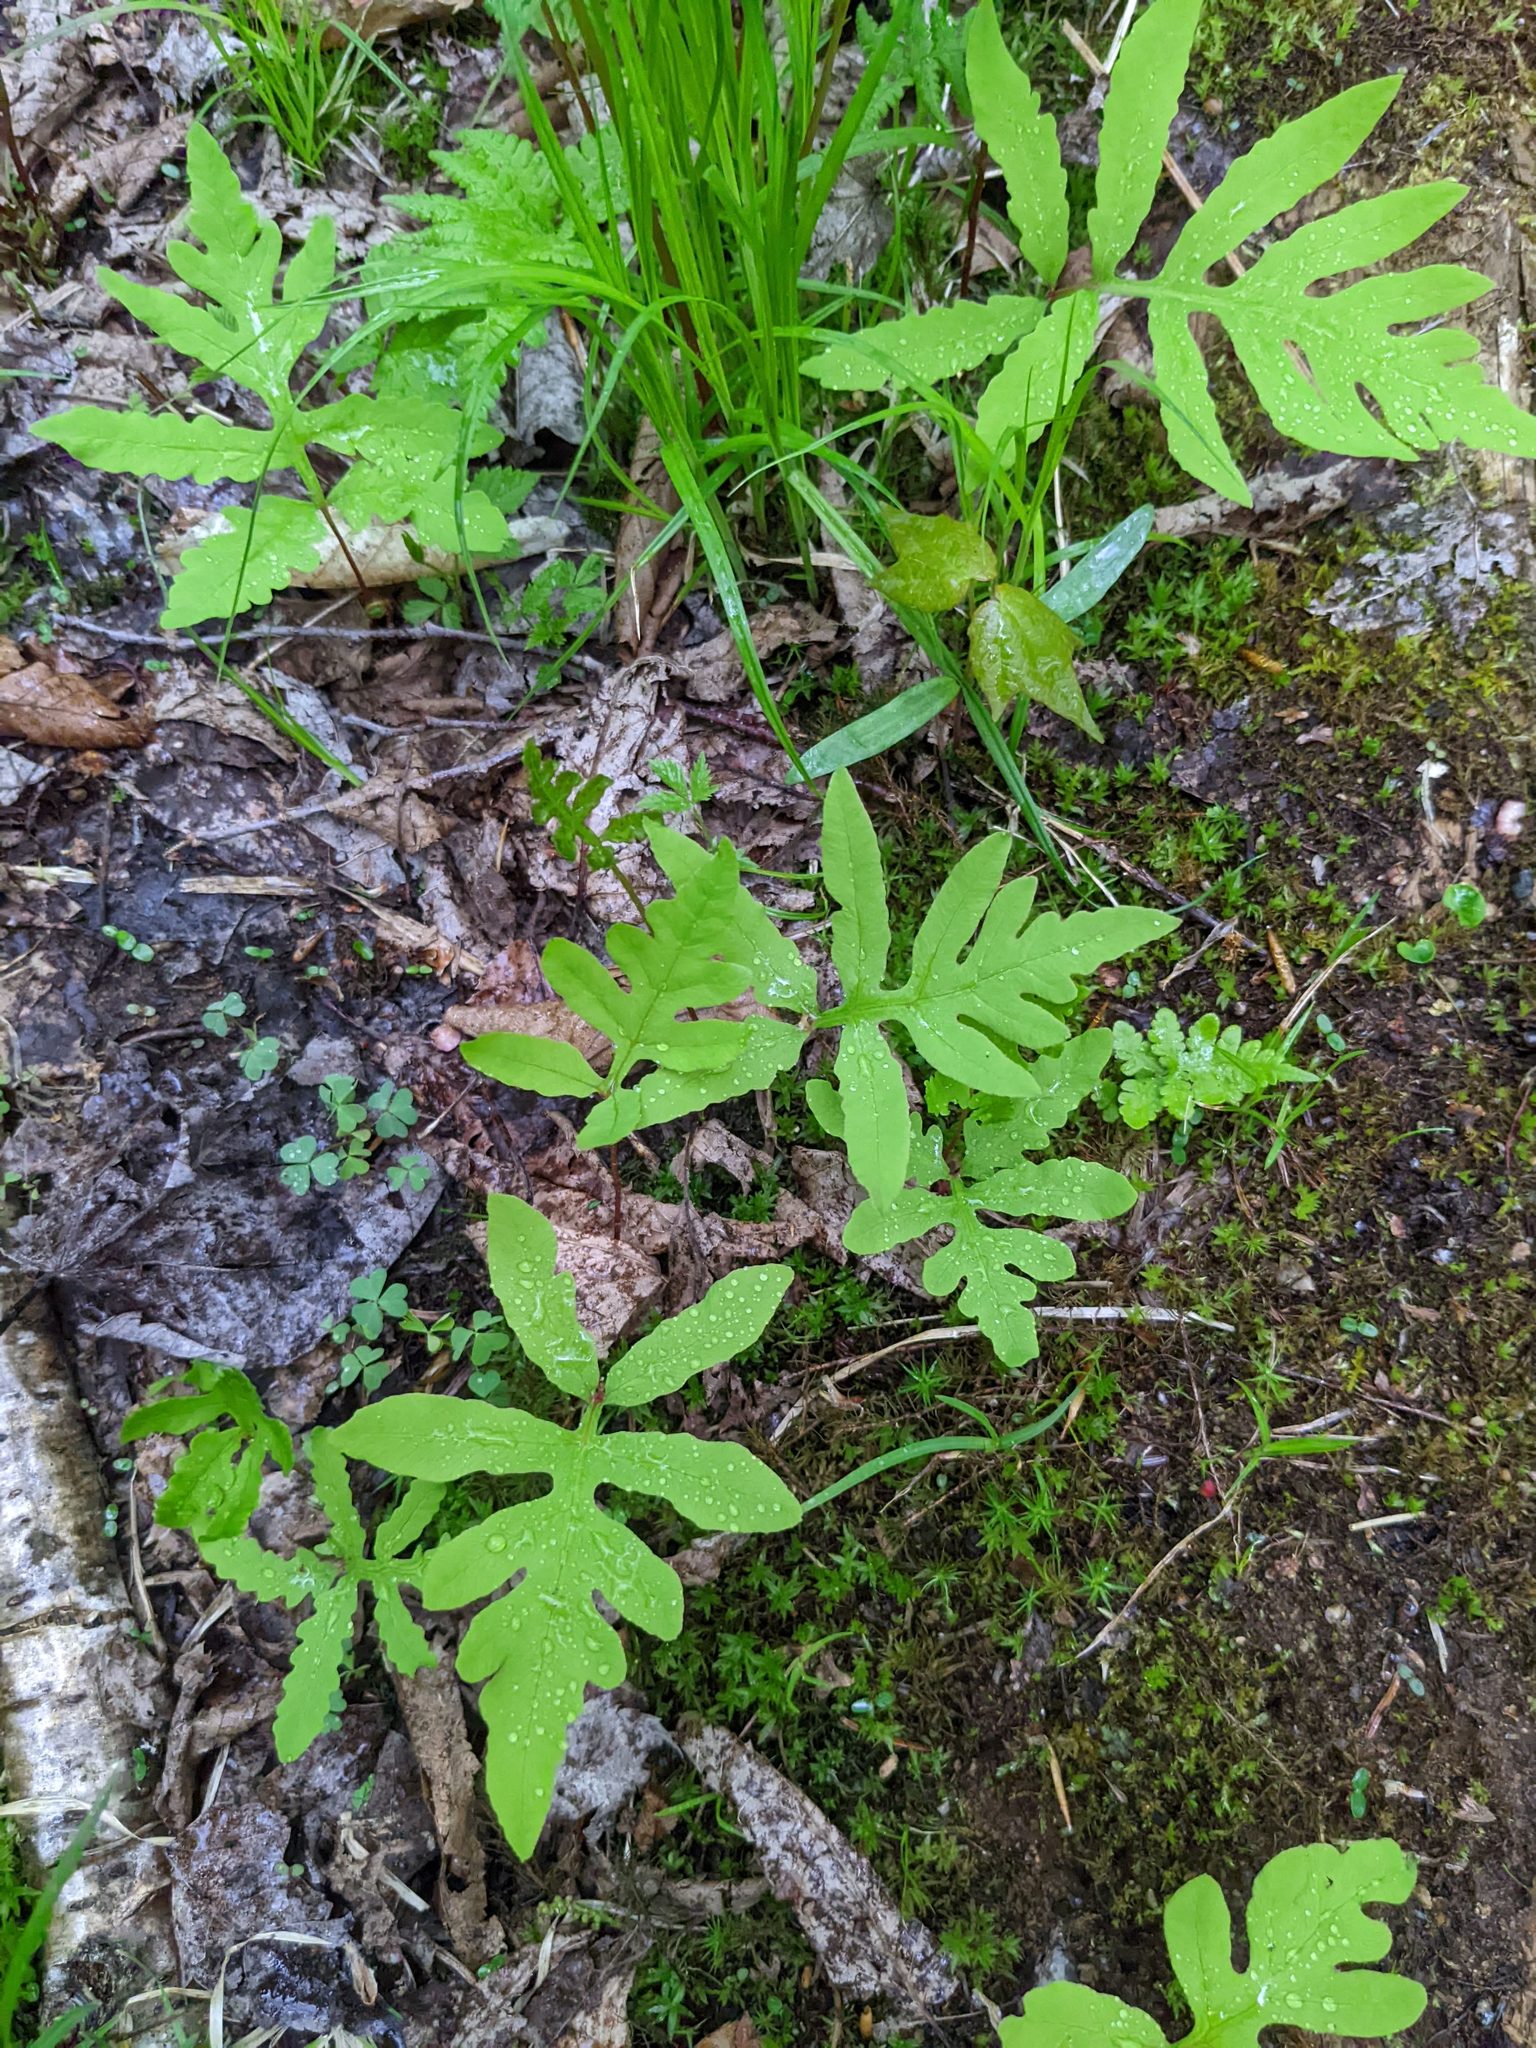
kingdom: Plantae
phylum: Tracheophyta
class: Polypodiopsida
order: Polypodiales
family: Onocleaceae
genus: Onoclea
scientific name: Onoclea sensibilis
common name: Sensitive fern
